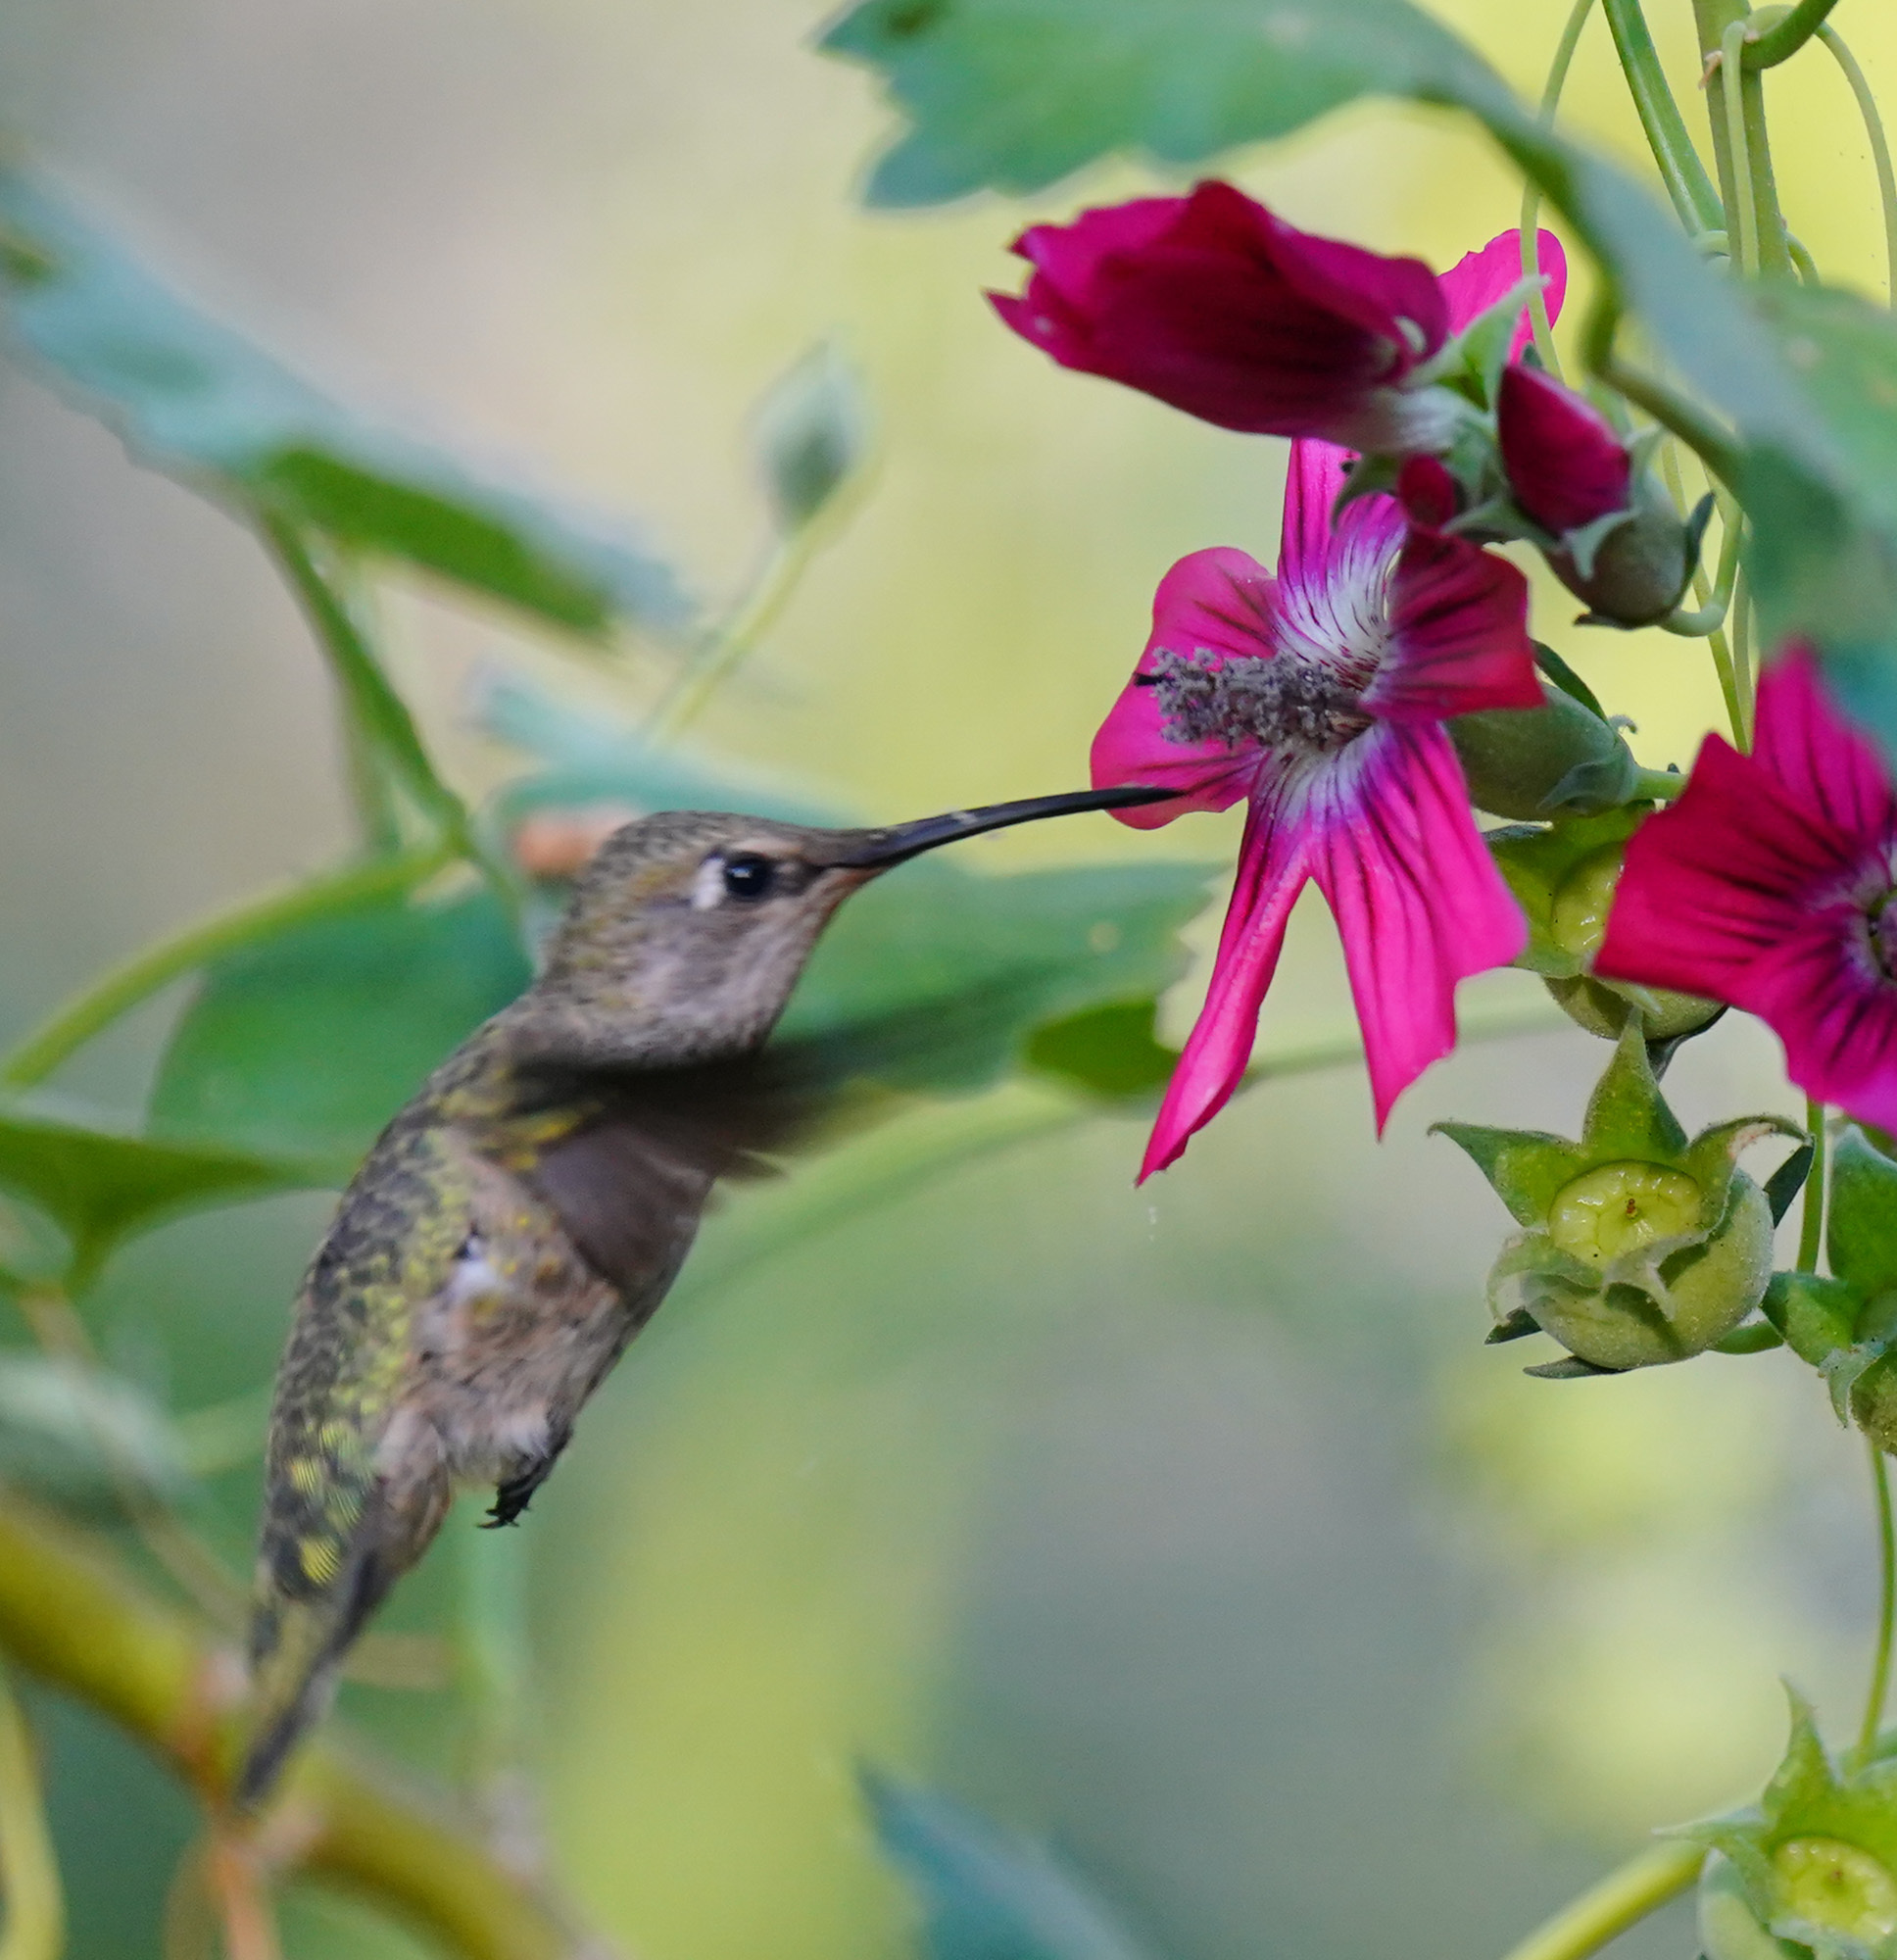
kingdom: Animalia
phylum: Chordata
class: Aves
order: Apodiformes
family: Trochilidae
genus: Calypte
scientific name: Calypte anna
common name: Anna's hummingbird
